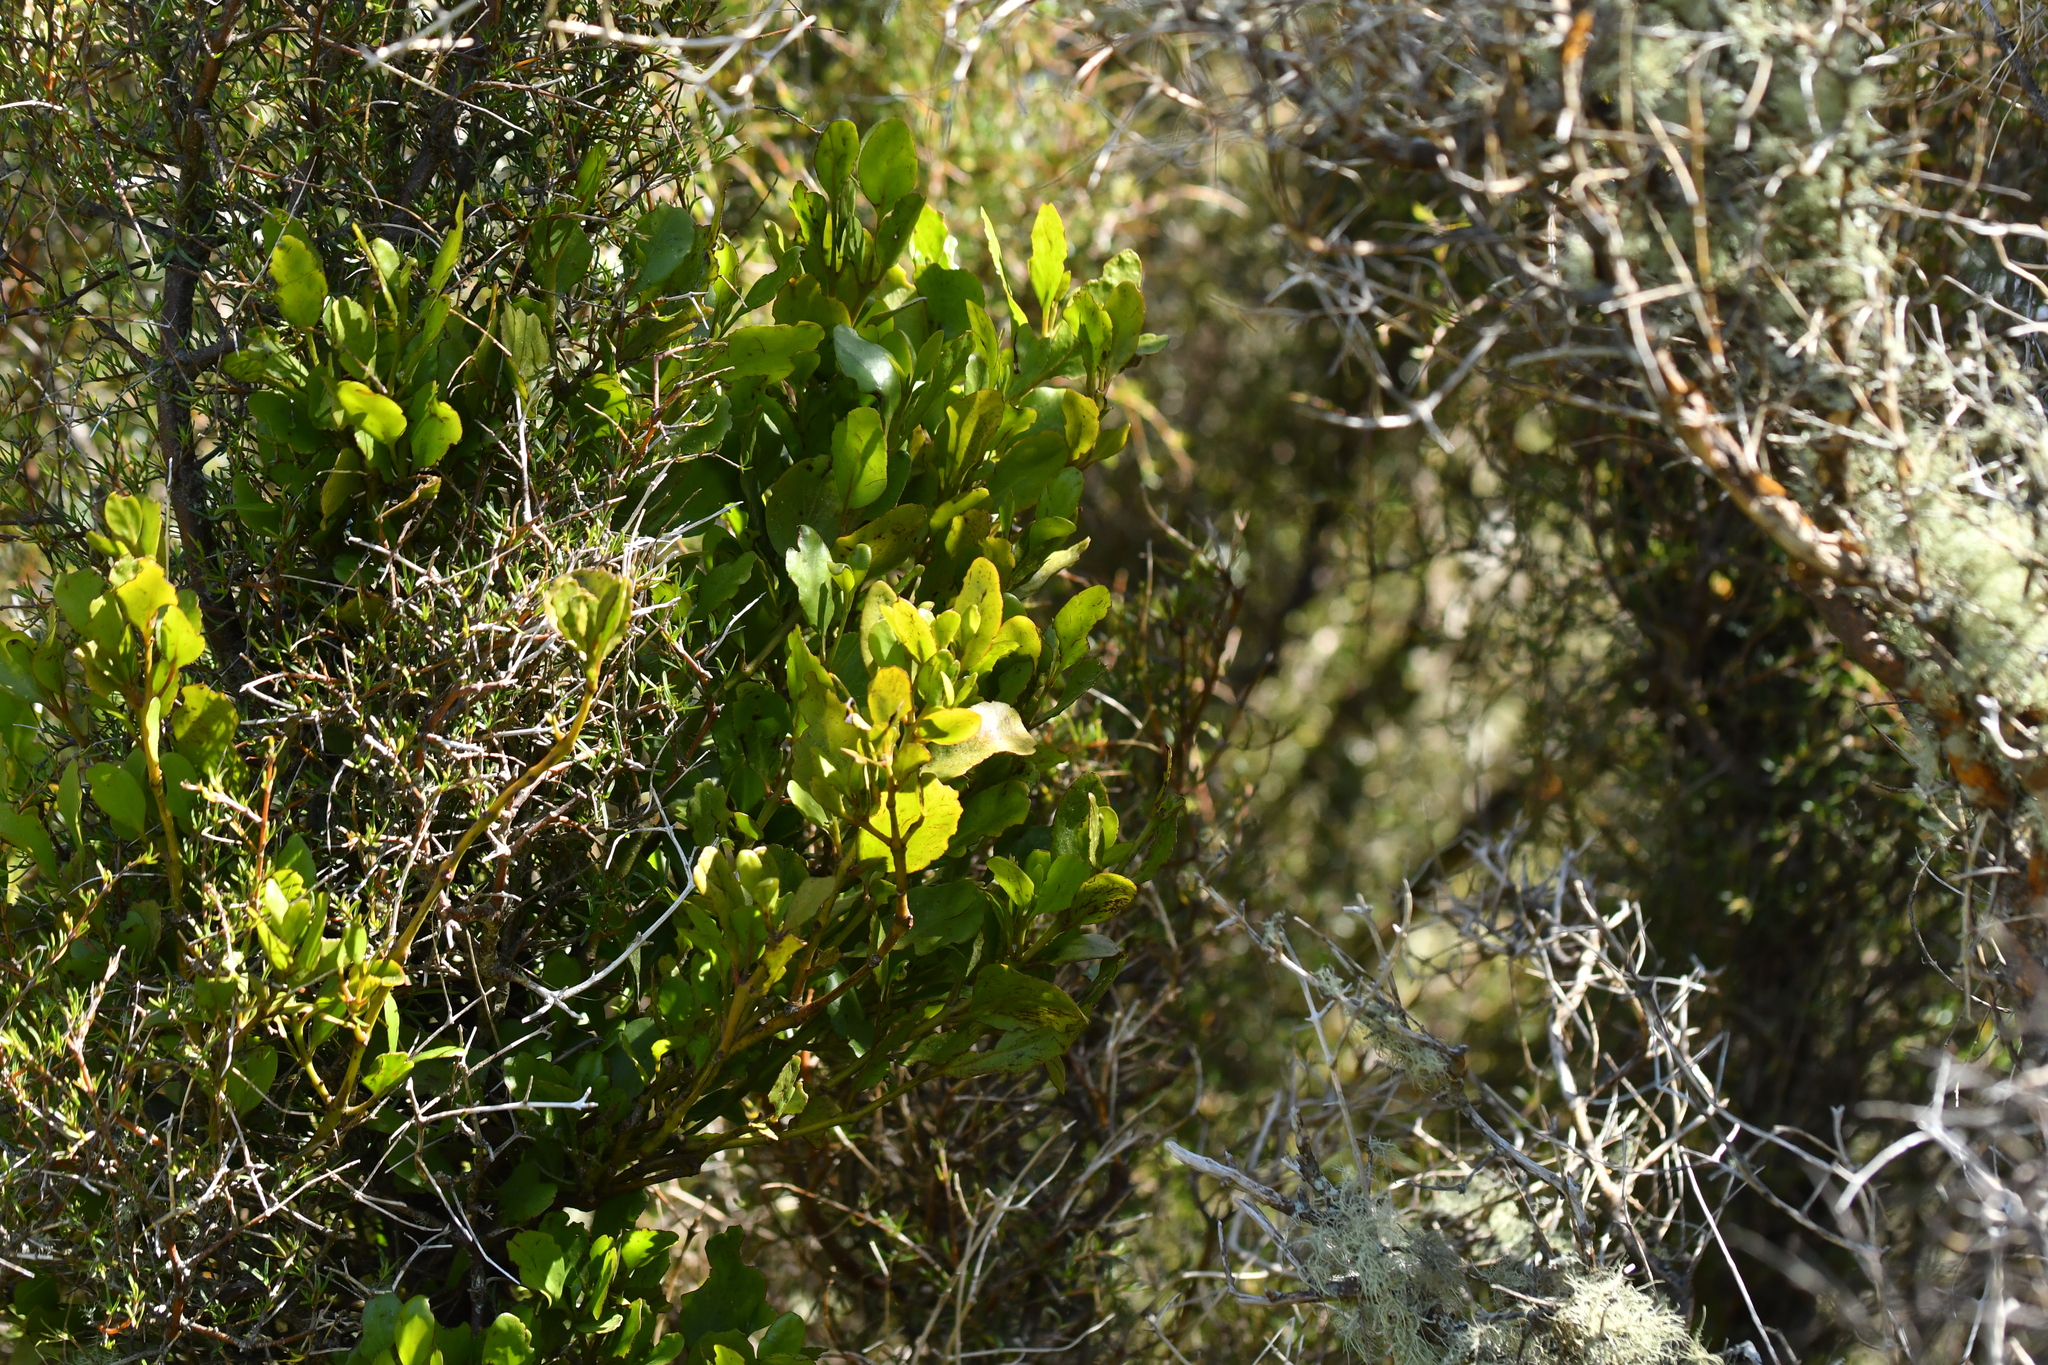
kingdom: Plantae
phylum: Tracheophyta
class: Magnoliopsida
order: Santalales
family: Loranthaceae
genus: Ileostylus
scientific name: Ileostylus micranthus
